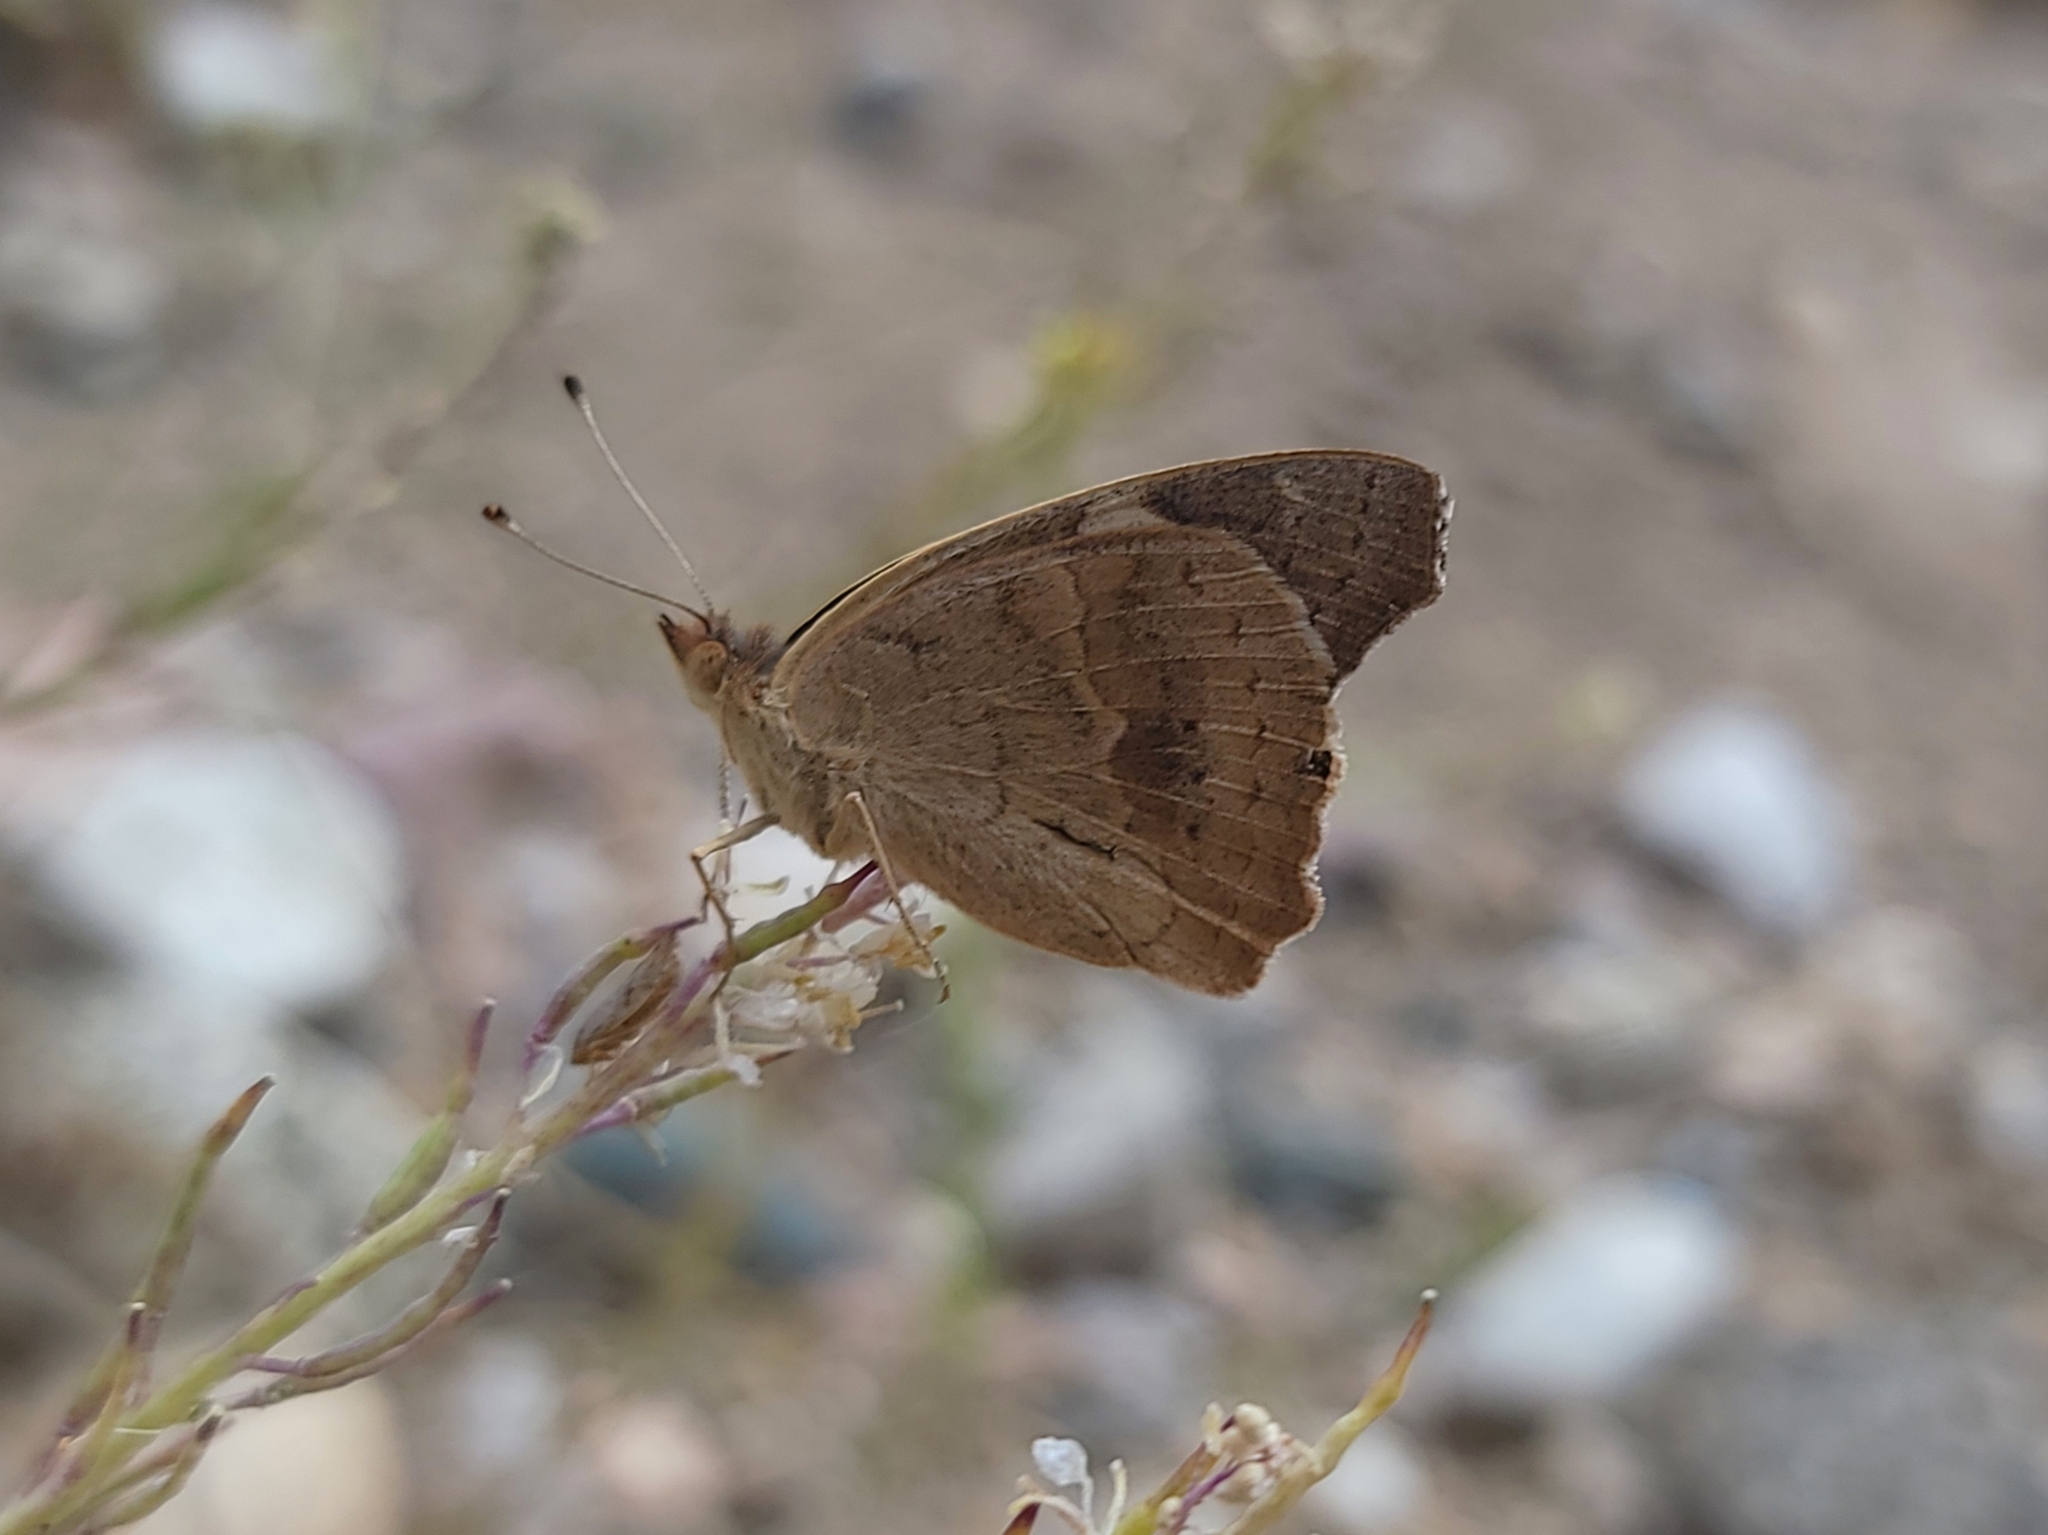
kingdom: Animalia
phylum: Arthropoda
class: Insecta
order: Lepidoptera
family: Nymphalidae
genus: Junonia
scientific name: Junonia grisea
